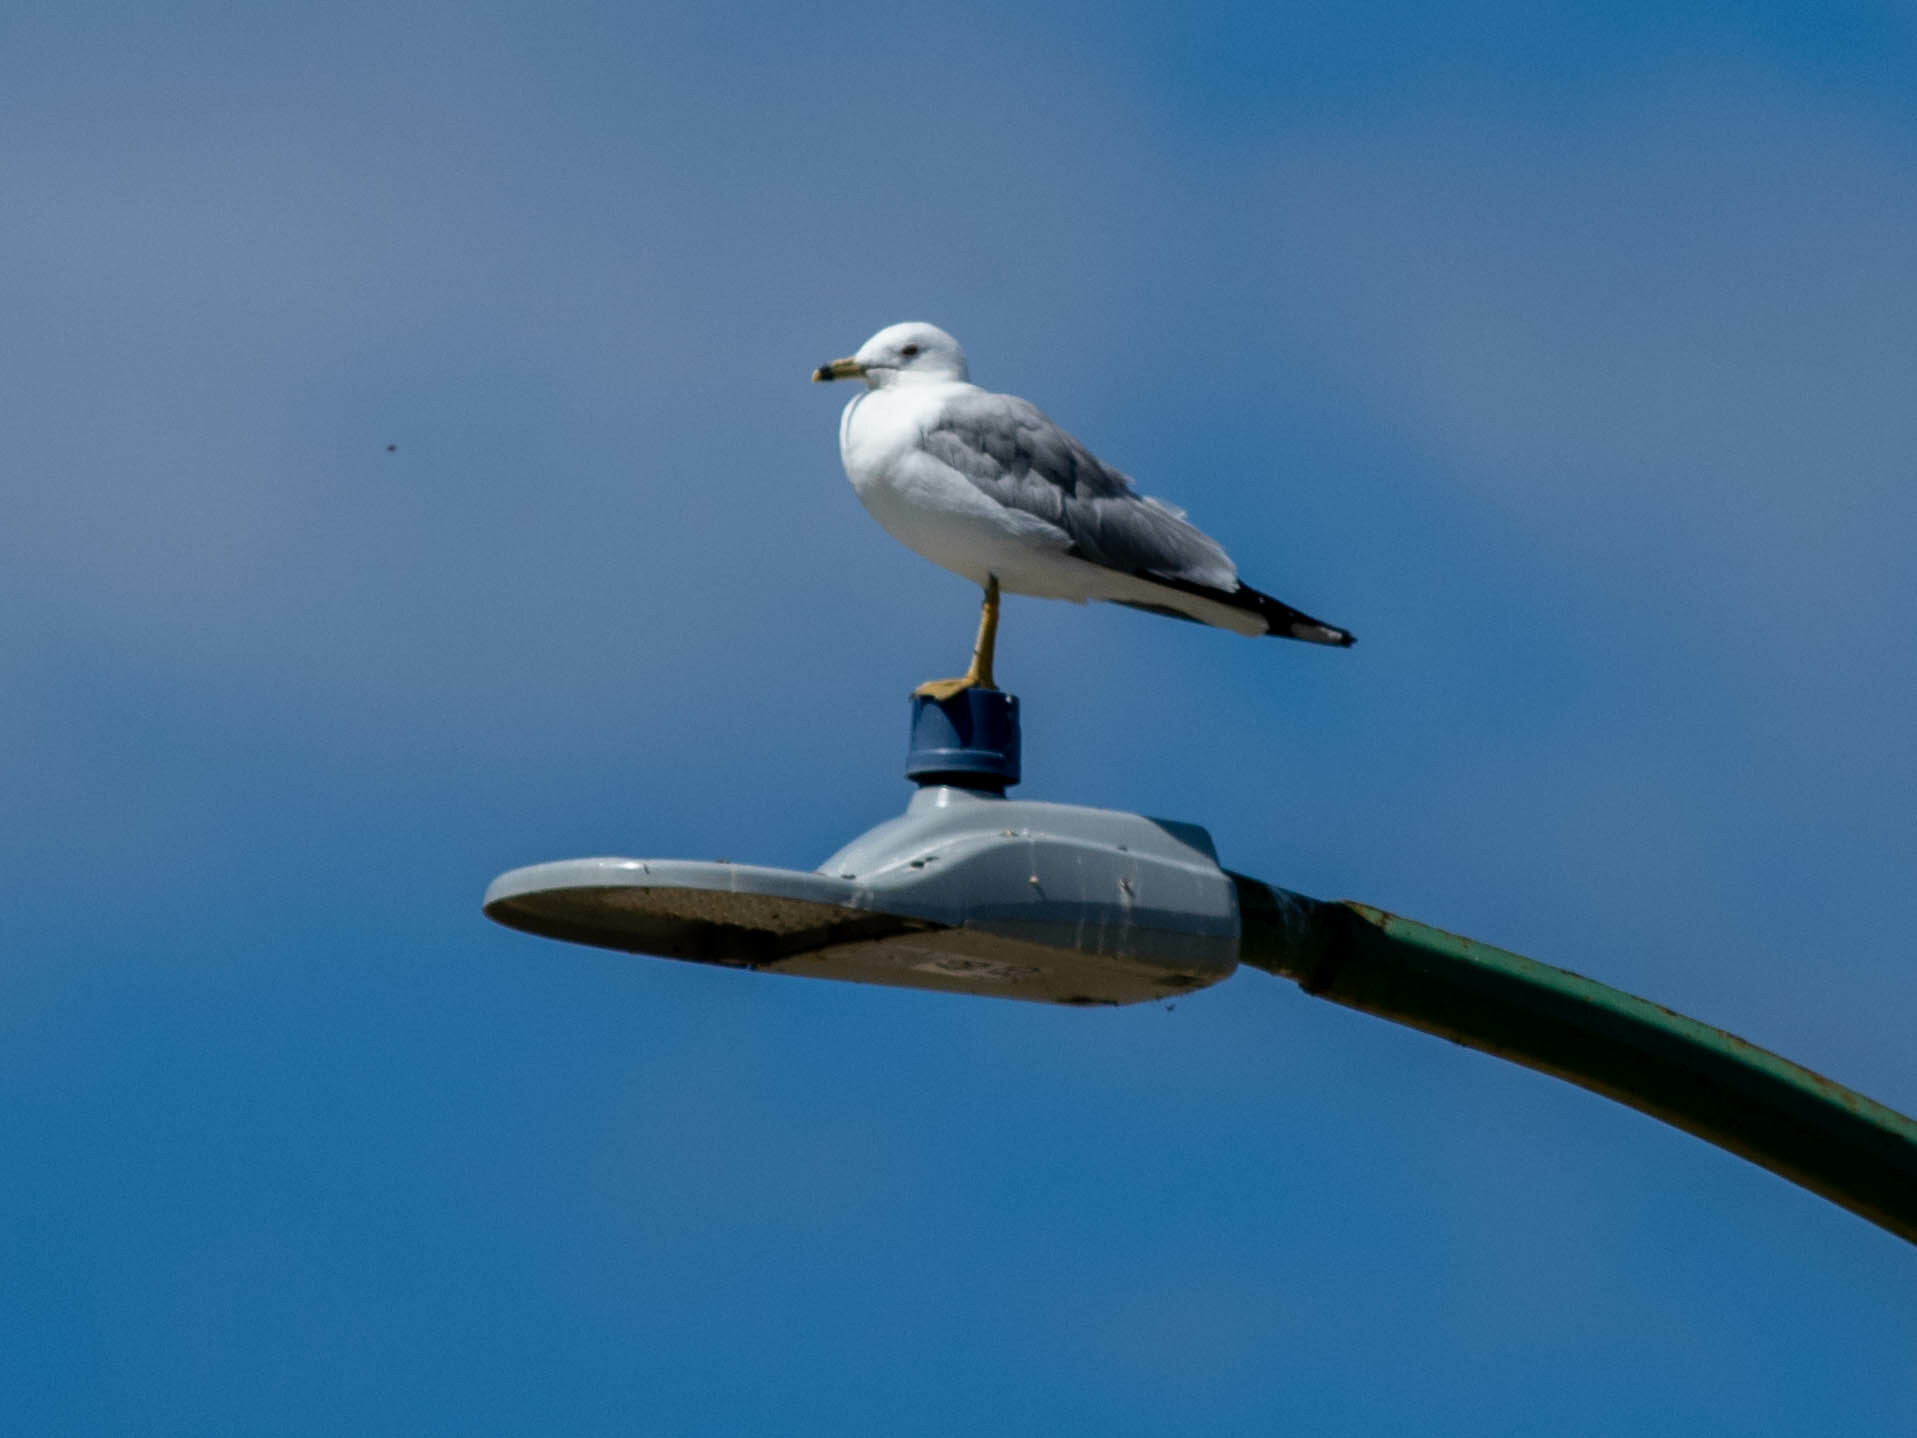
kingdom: Animalia
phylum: Chordata
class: Aves
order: Charadriiformes
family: Laridae
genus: Larus
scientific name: Larus delawarensis
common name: Ring-billed gull
